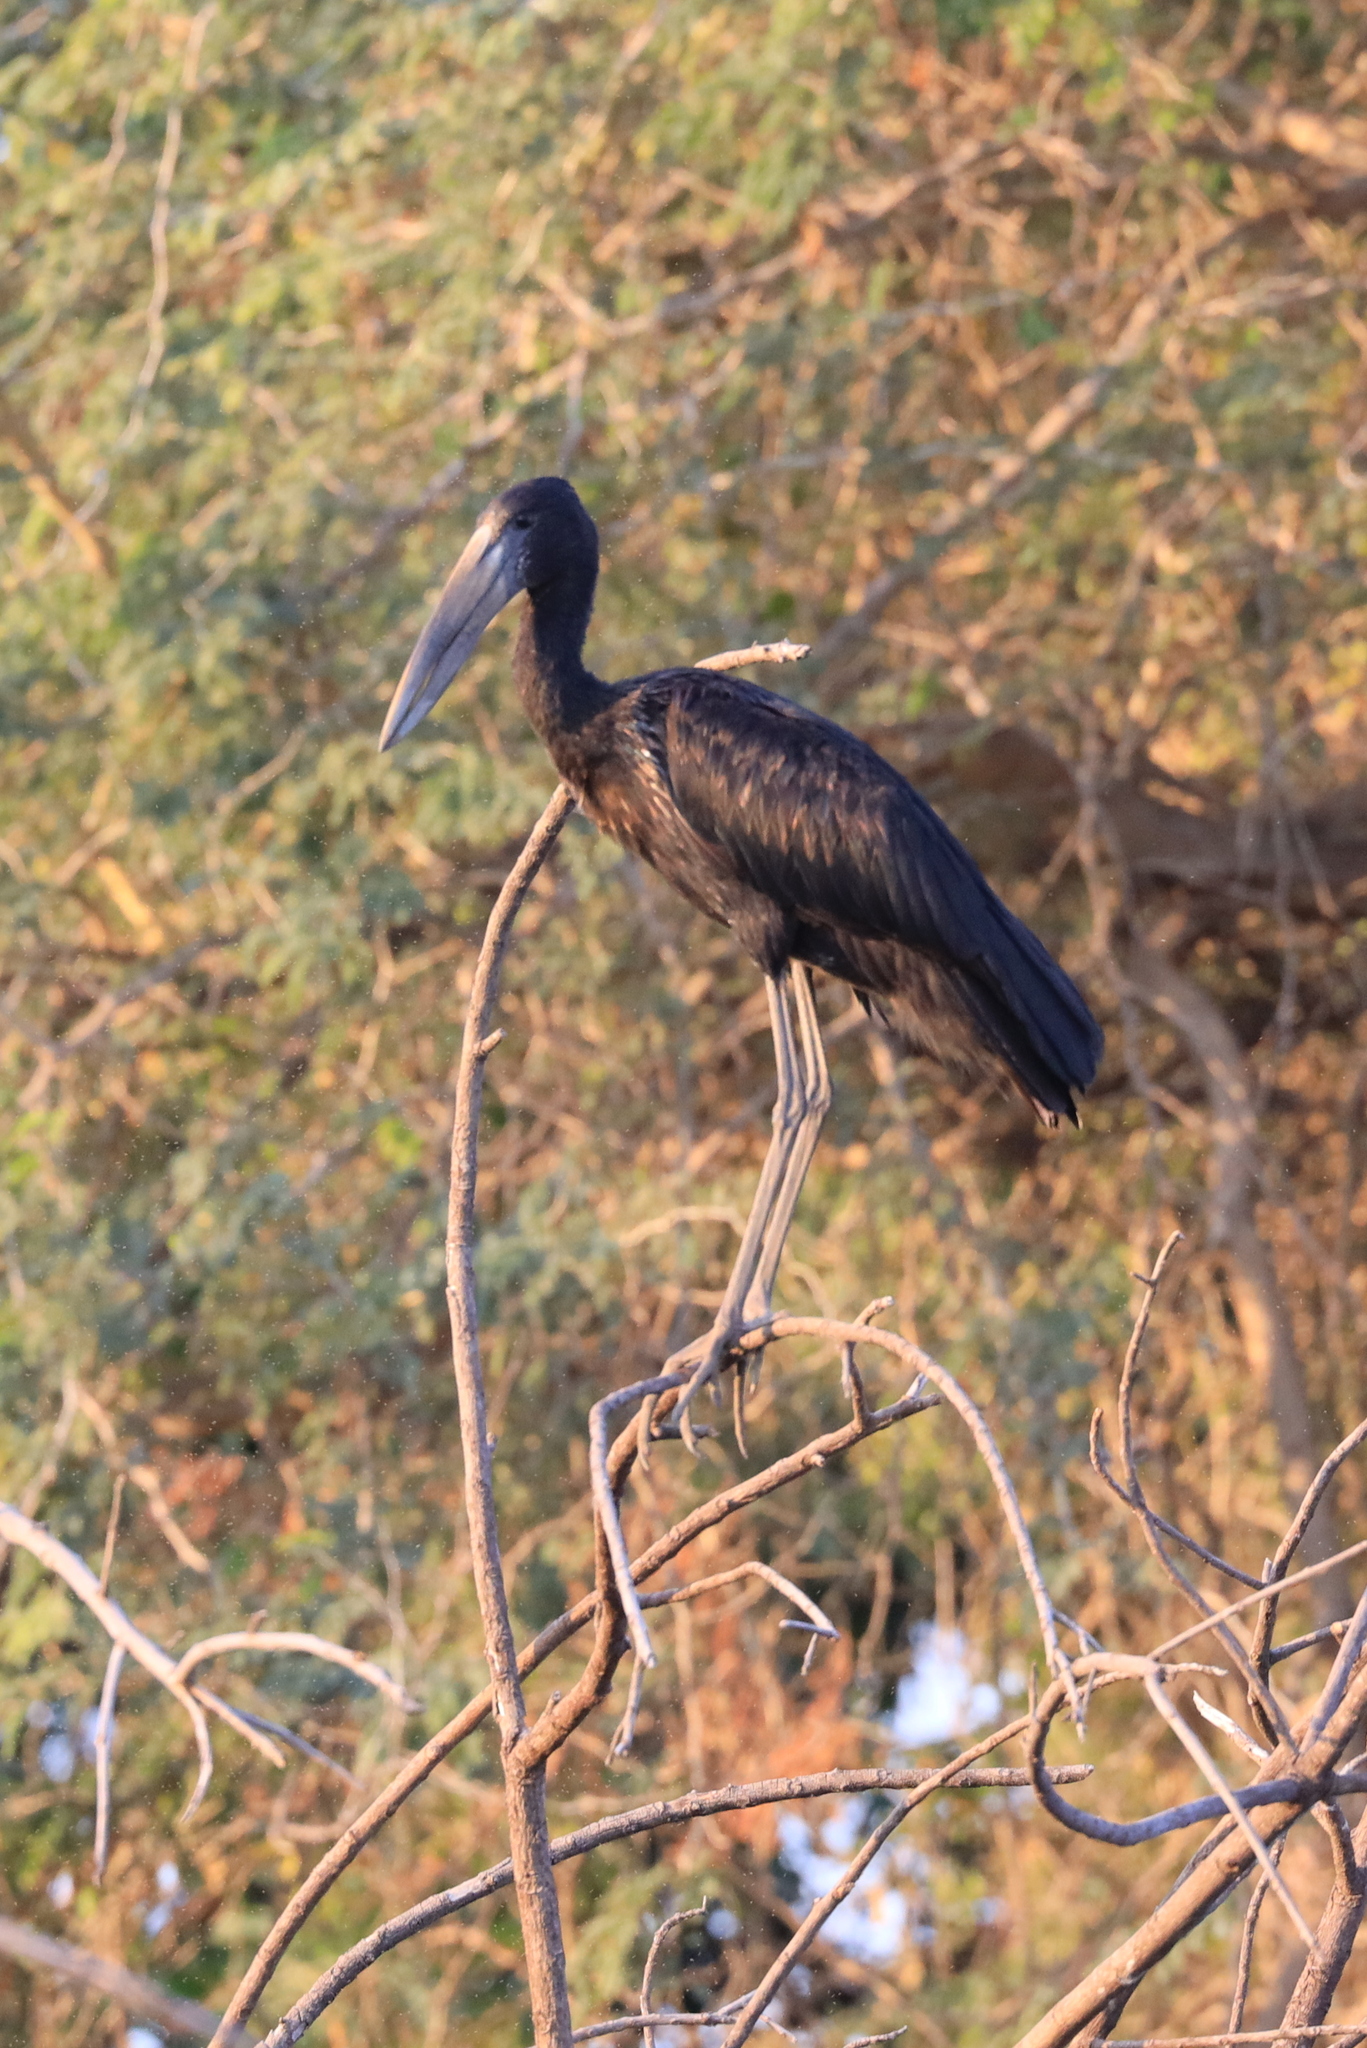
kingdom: Animalia
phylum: Chordata
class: Aves
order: Ciconiiformes
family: Ciconiidae
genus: Anastomus
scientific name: Anastomus lamelligerus
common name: African openbill
